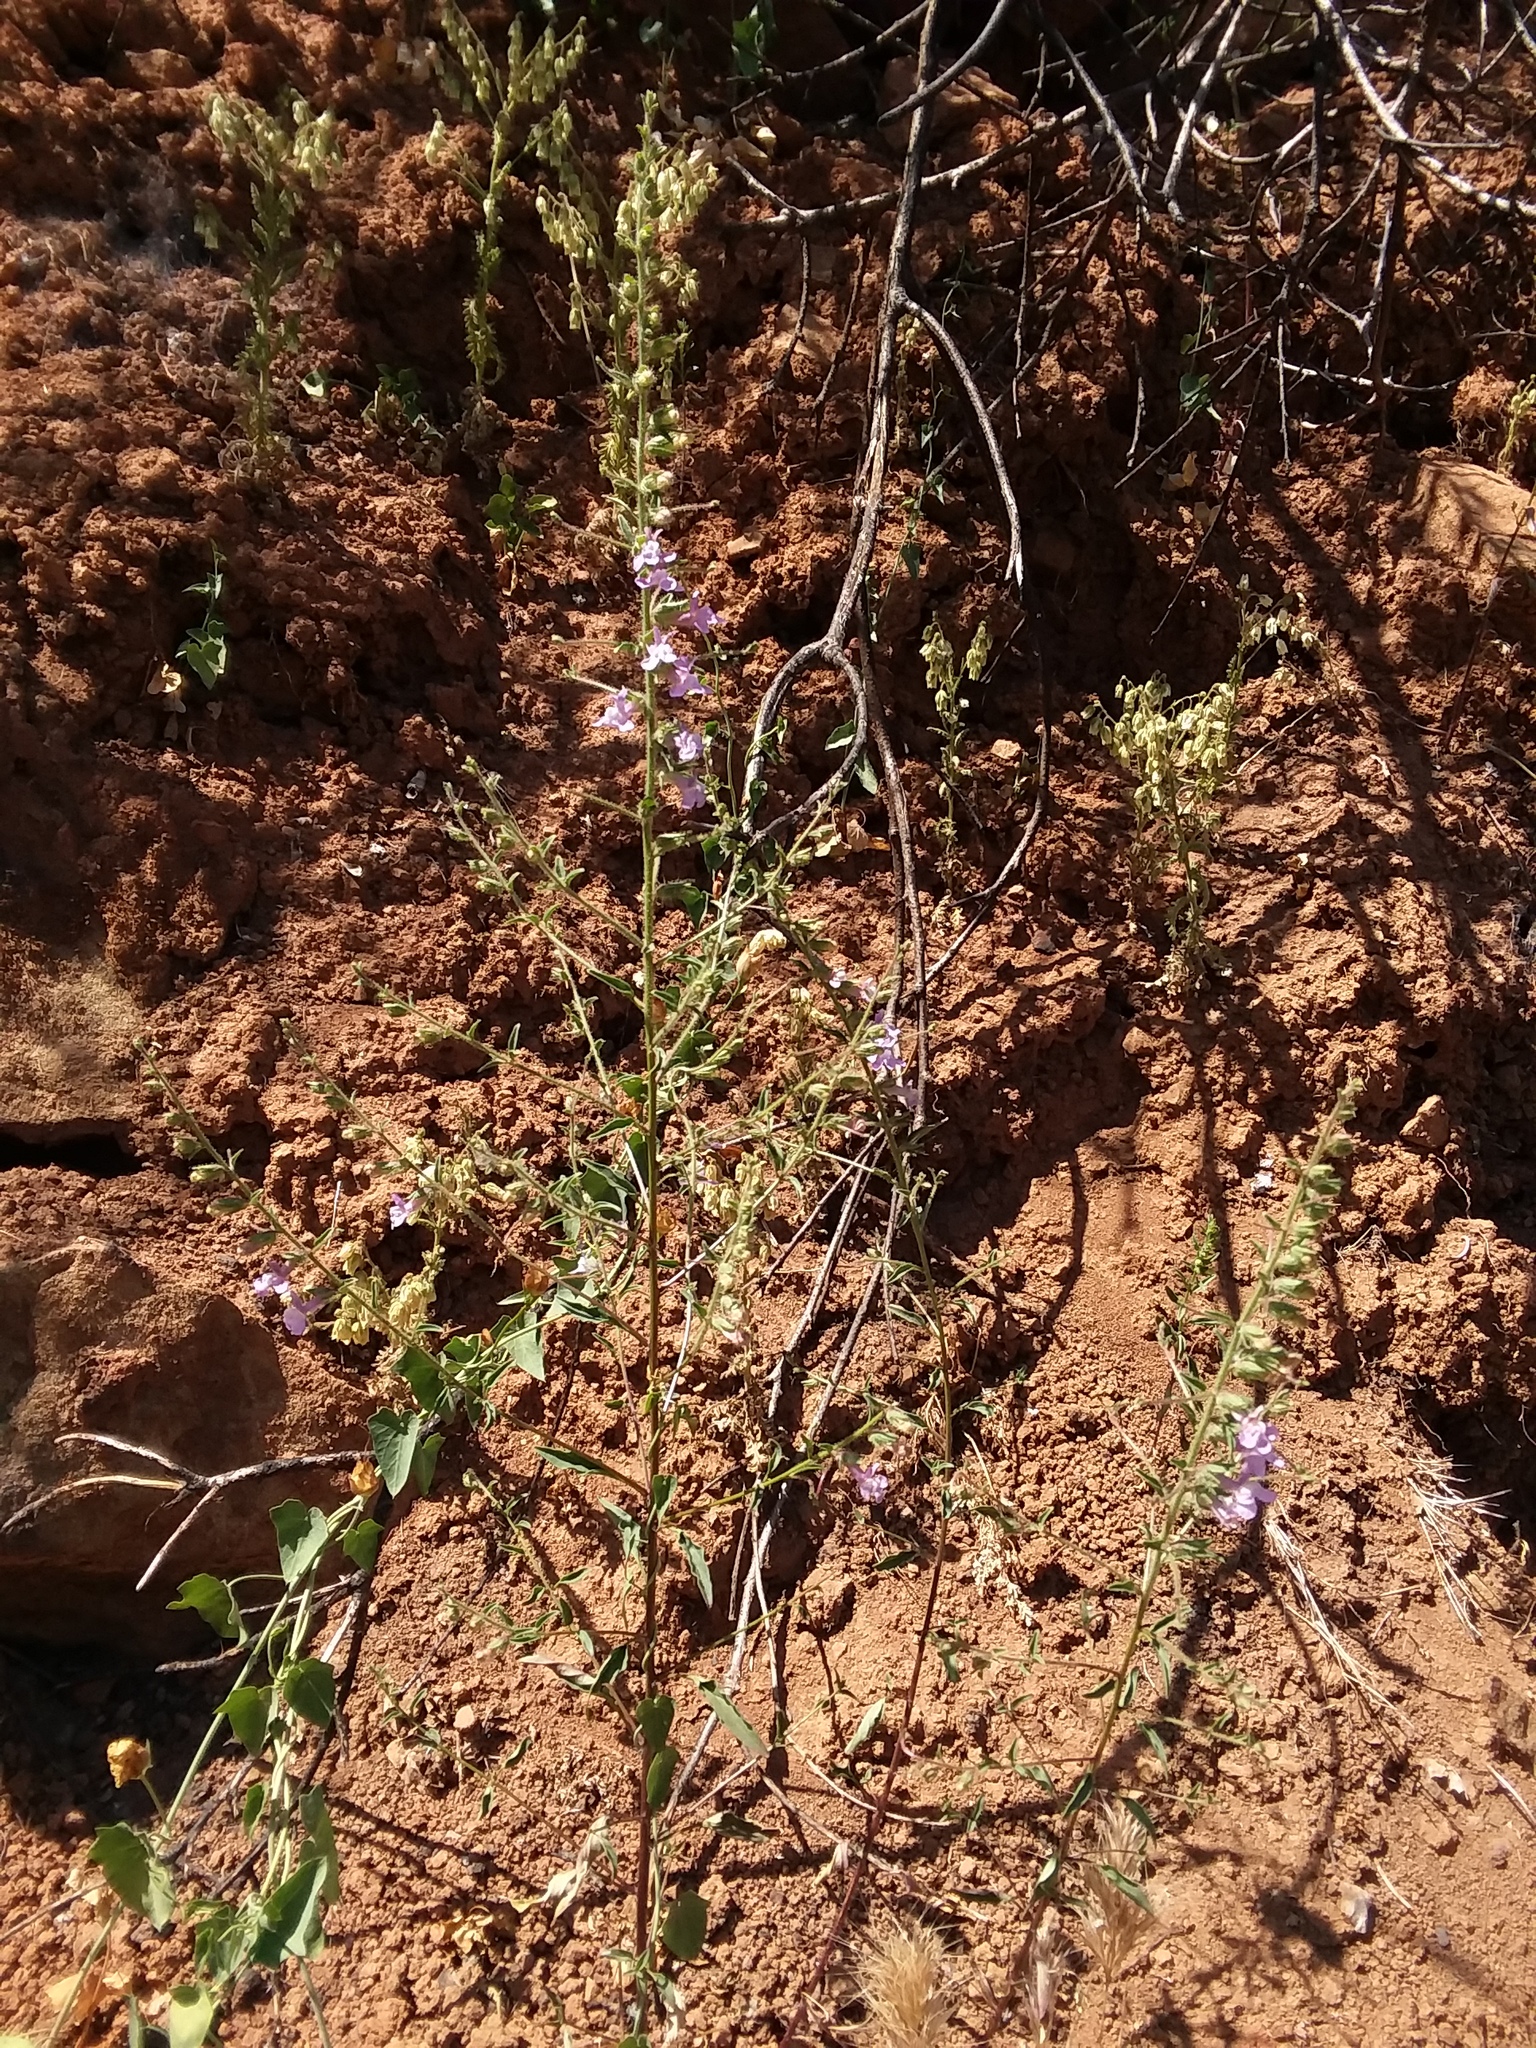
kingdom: Plantae
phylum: Tracheophyta
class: Magnoliopsida
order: Lamiales
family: Plantaginaceae
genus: Sairocarpus
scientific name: Sairocarpus vexillocalyculatus
